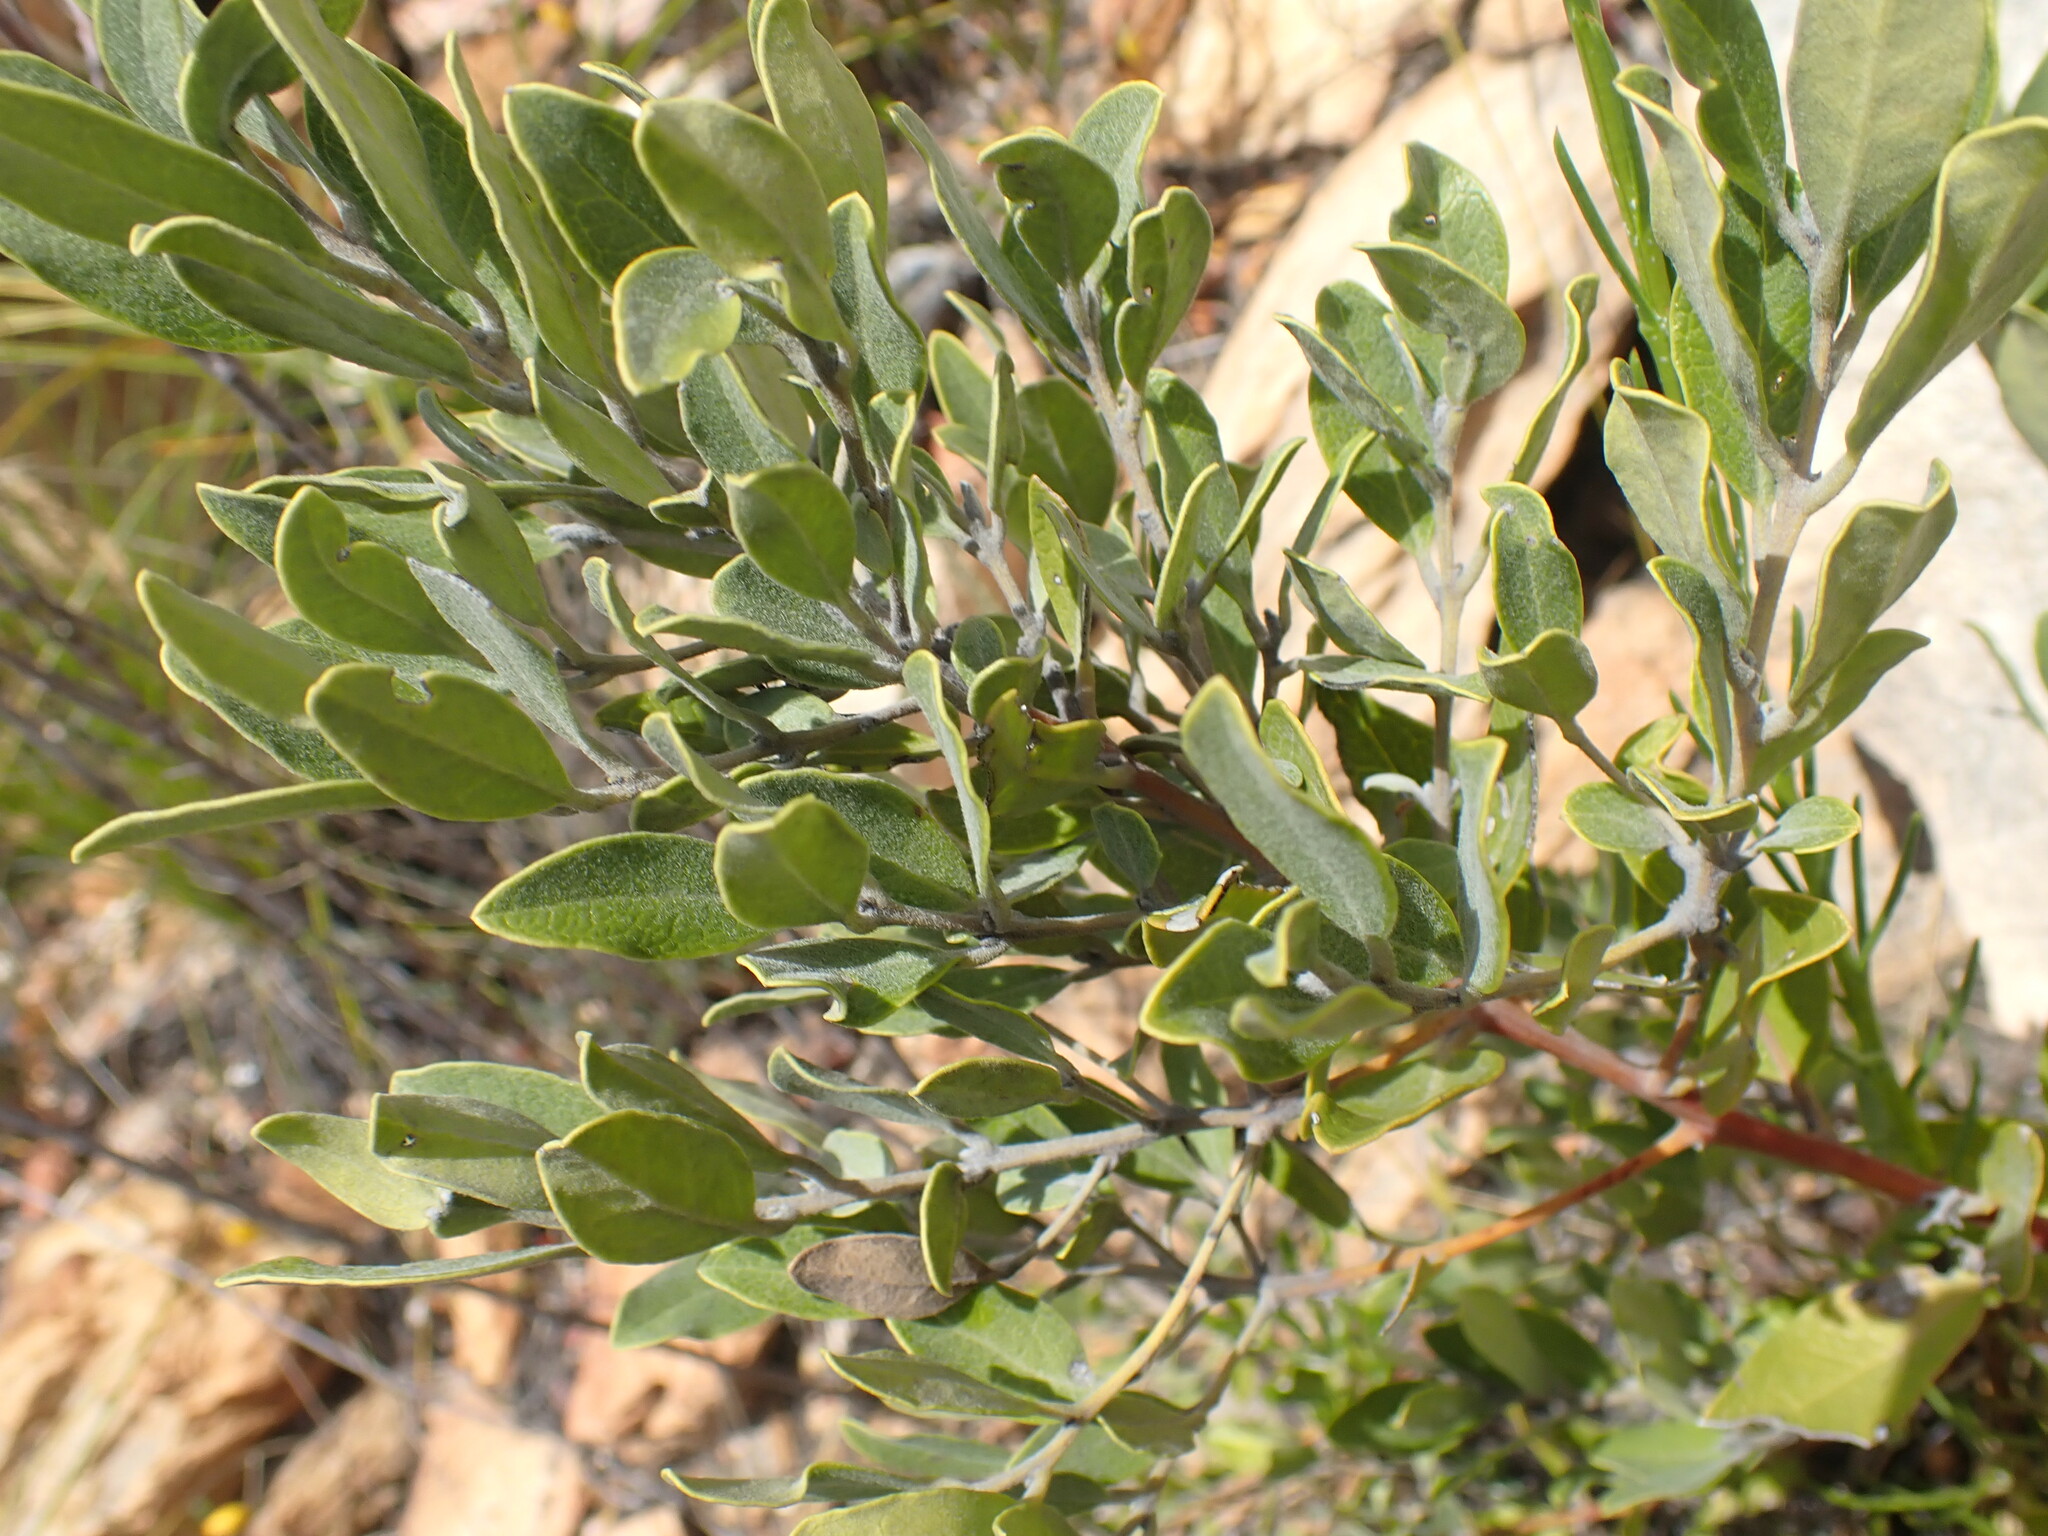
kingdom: Plantae
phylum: Tracheophyta
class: Magnoliopsida
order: Ericales
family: Ebenaceae
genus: Euclea
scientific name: Euclea polyandra
